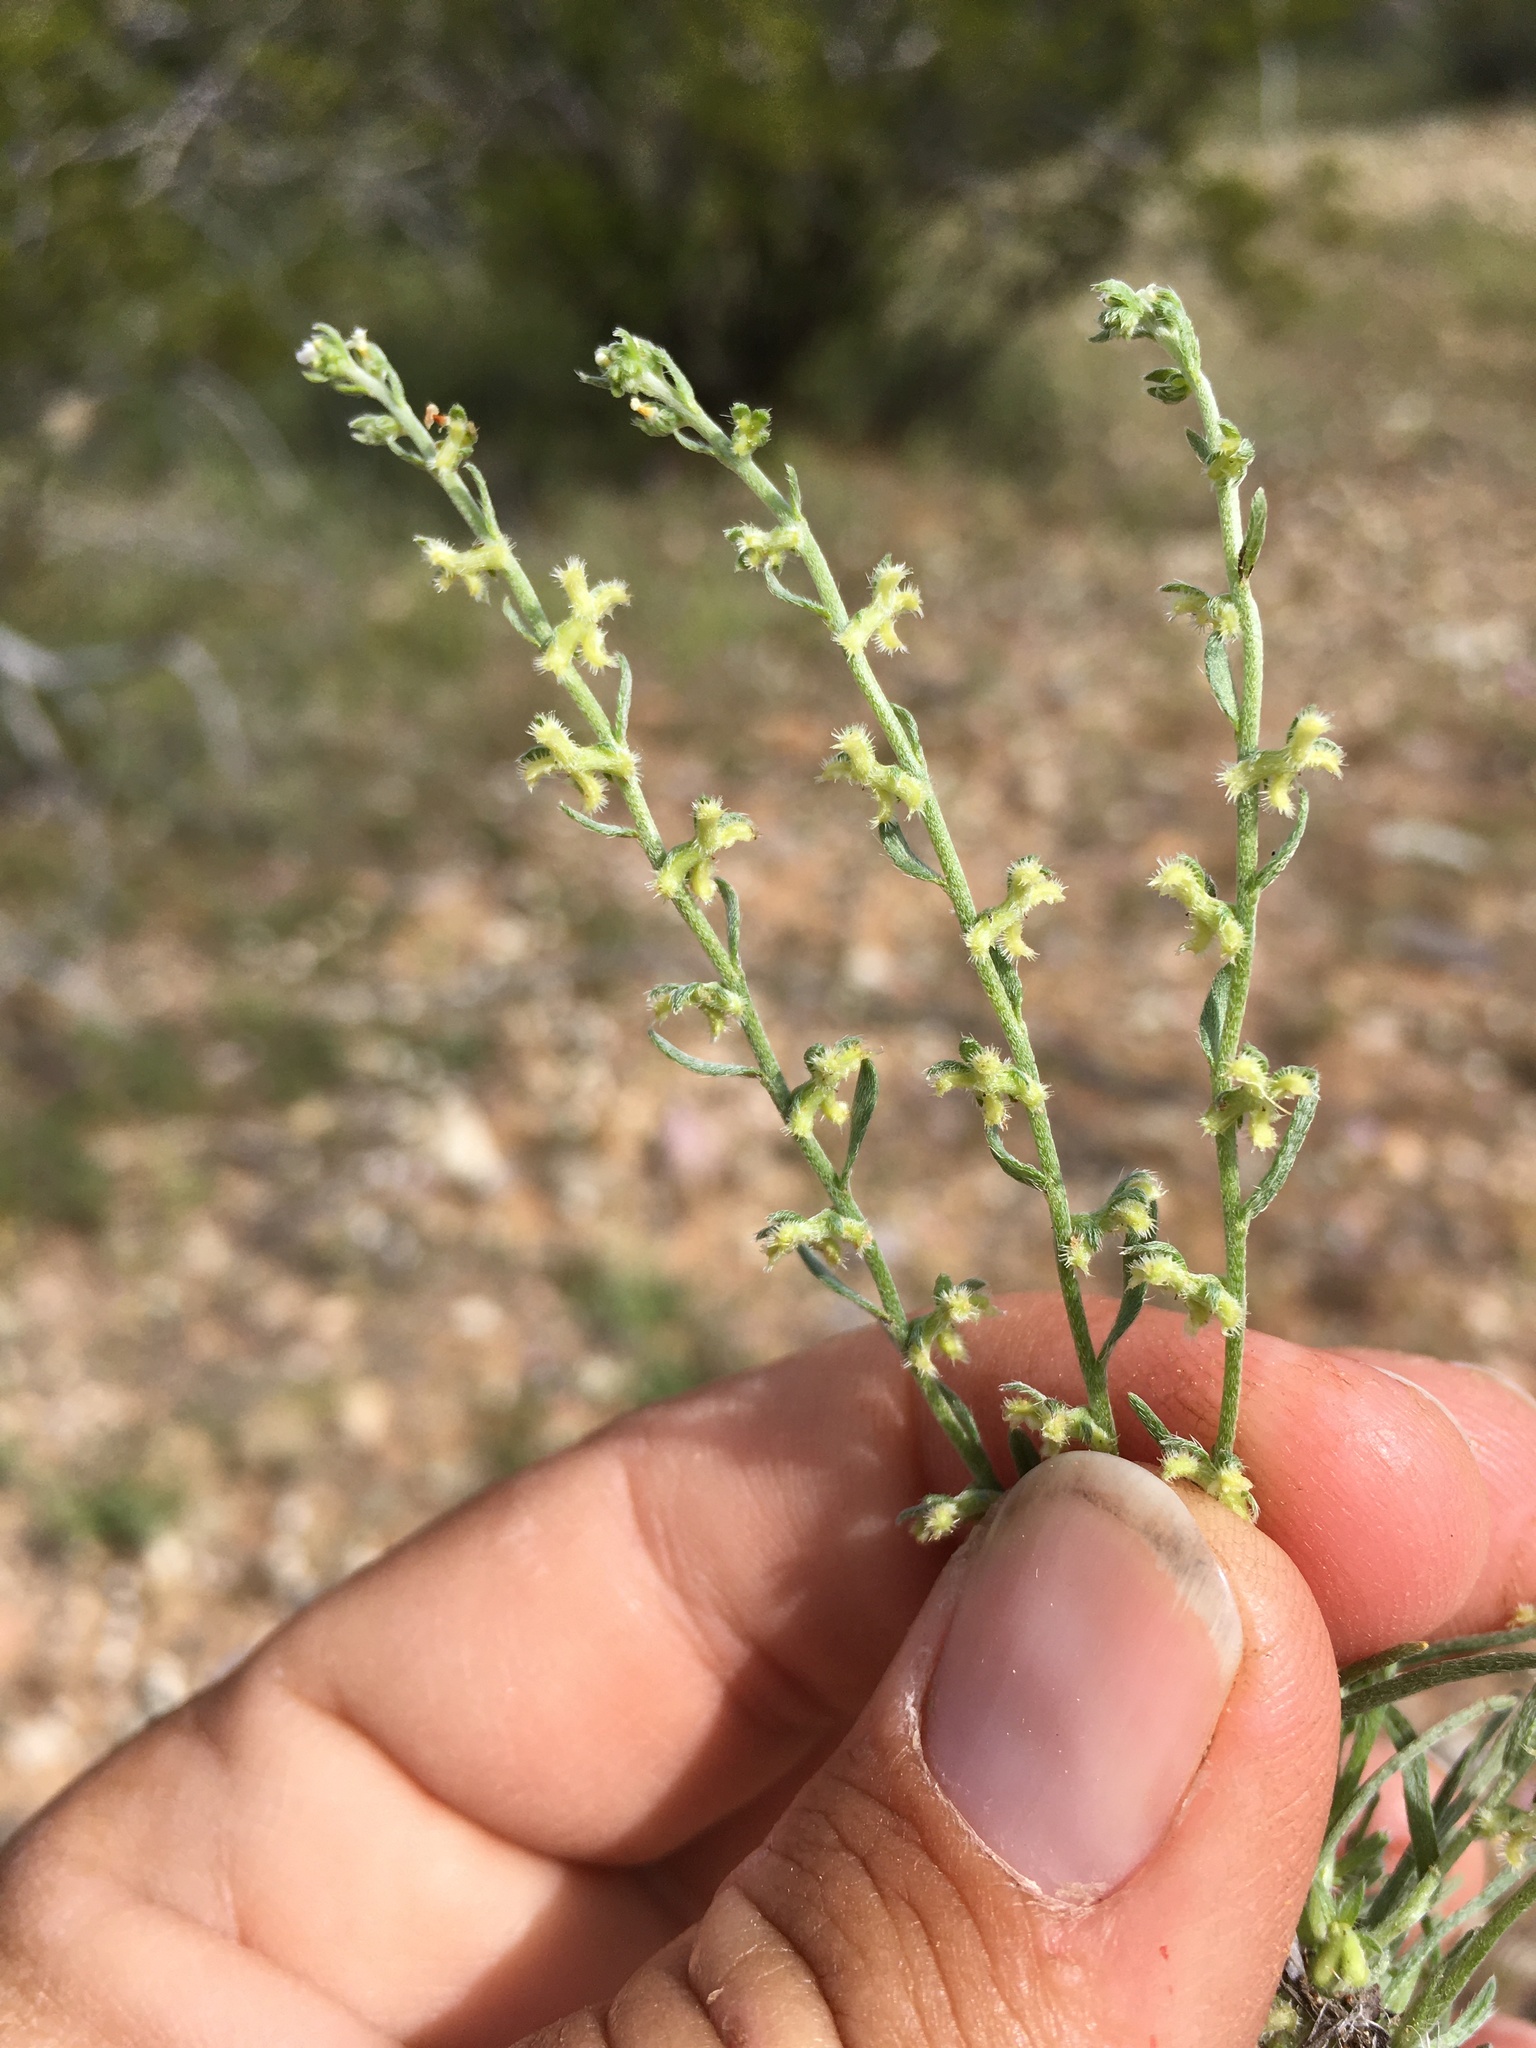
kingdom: Plantae
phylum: Tracheophyta
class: Magnoliopsida
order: Boraginales
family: Boraginaceae
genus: Pectocarya
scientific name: Pectocarya heterocarpa
